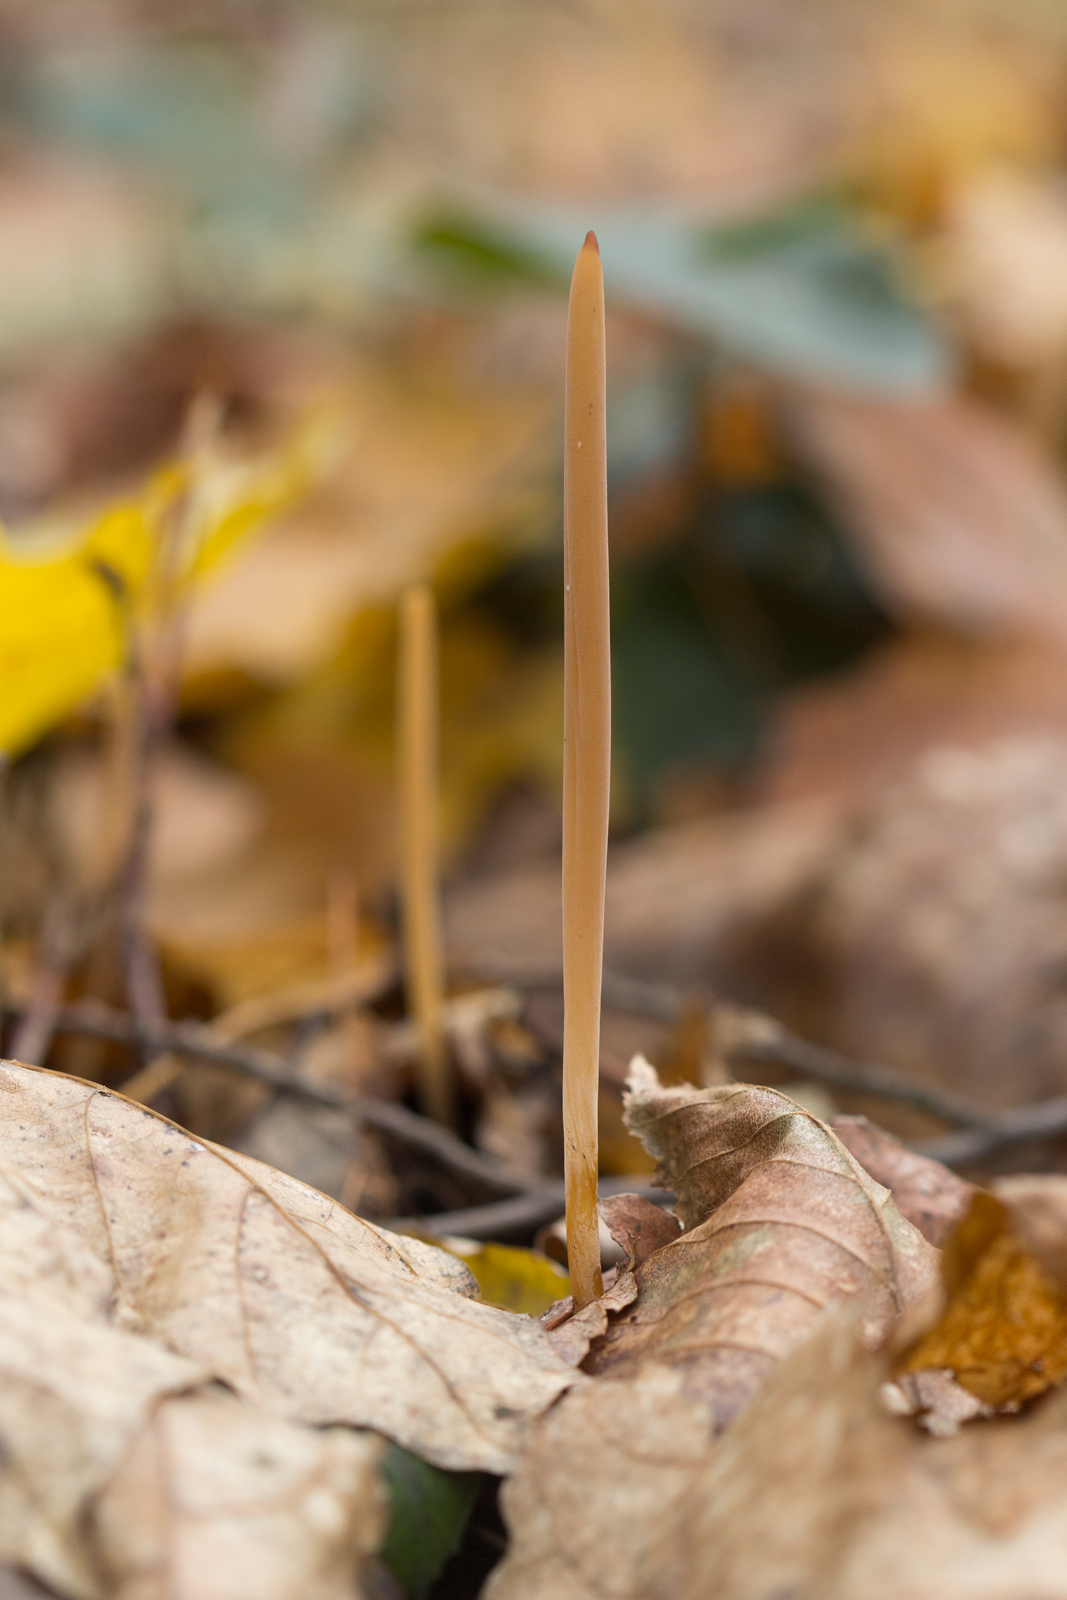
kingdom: Fungi
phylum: Basidiomycota
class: Agaricomycetes
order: Agaricales
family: Typhulaceae
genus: Typhula
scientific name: Typhula fistulosa
